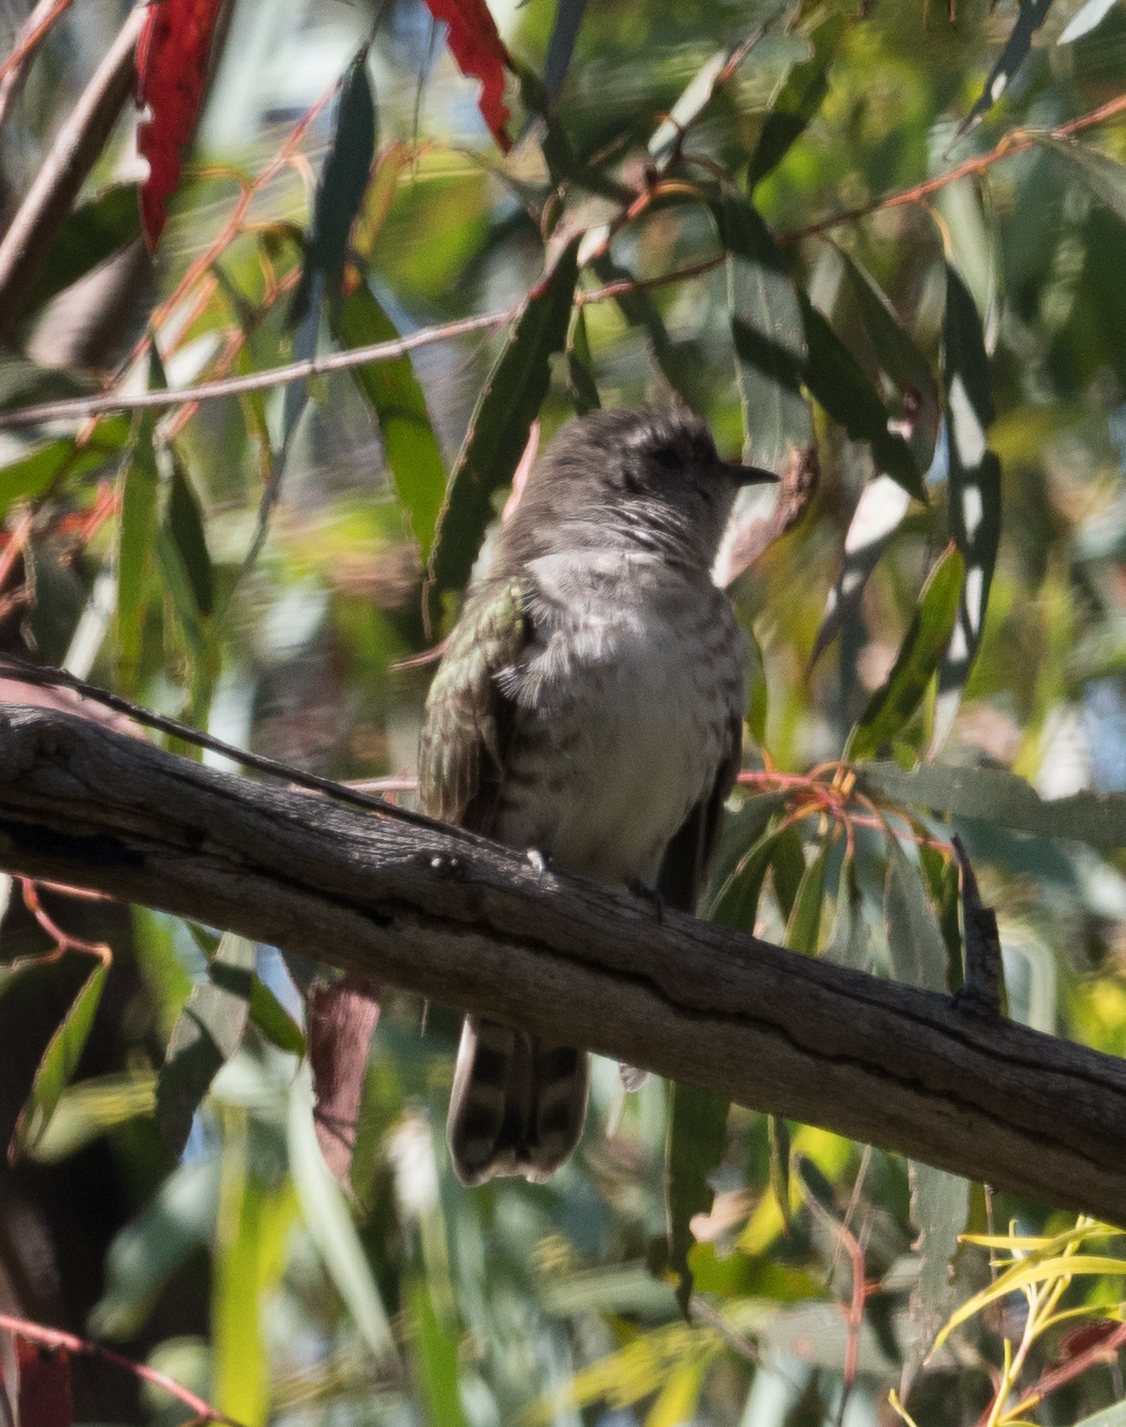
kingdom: Animalia
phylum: Chordata
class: Aves
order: Cuculiformes
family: Cuculidae
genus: Chrysococcyx
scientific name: Chrysococcyx lucidus
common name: Shining bronze cuckoo
